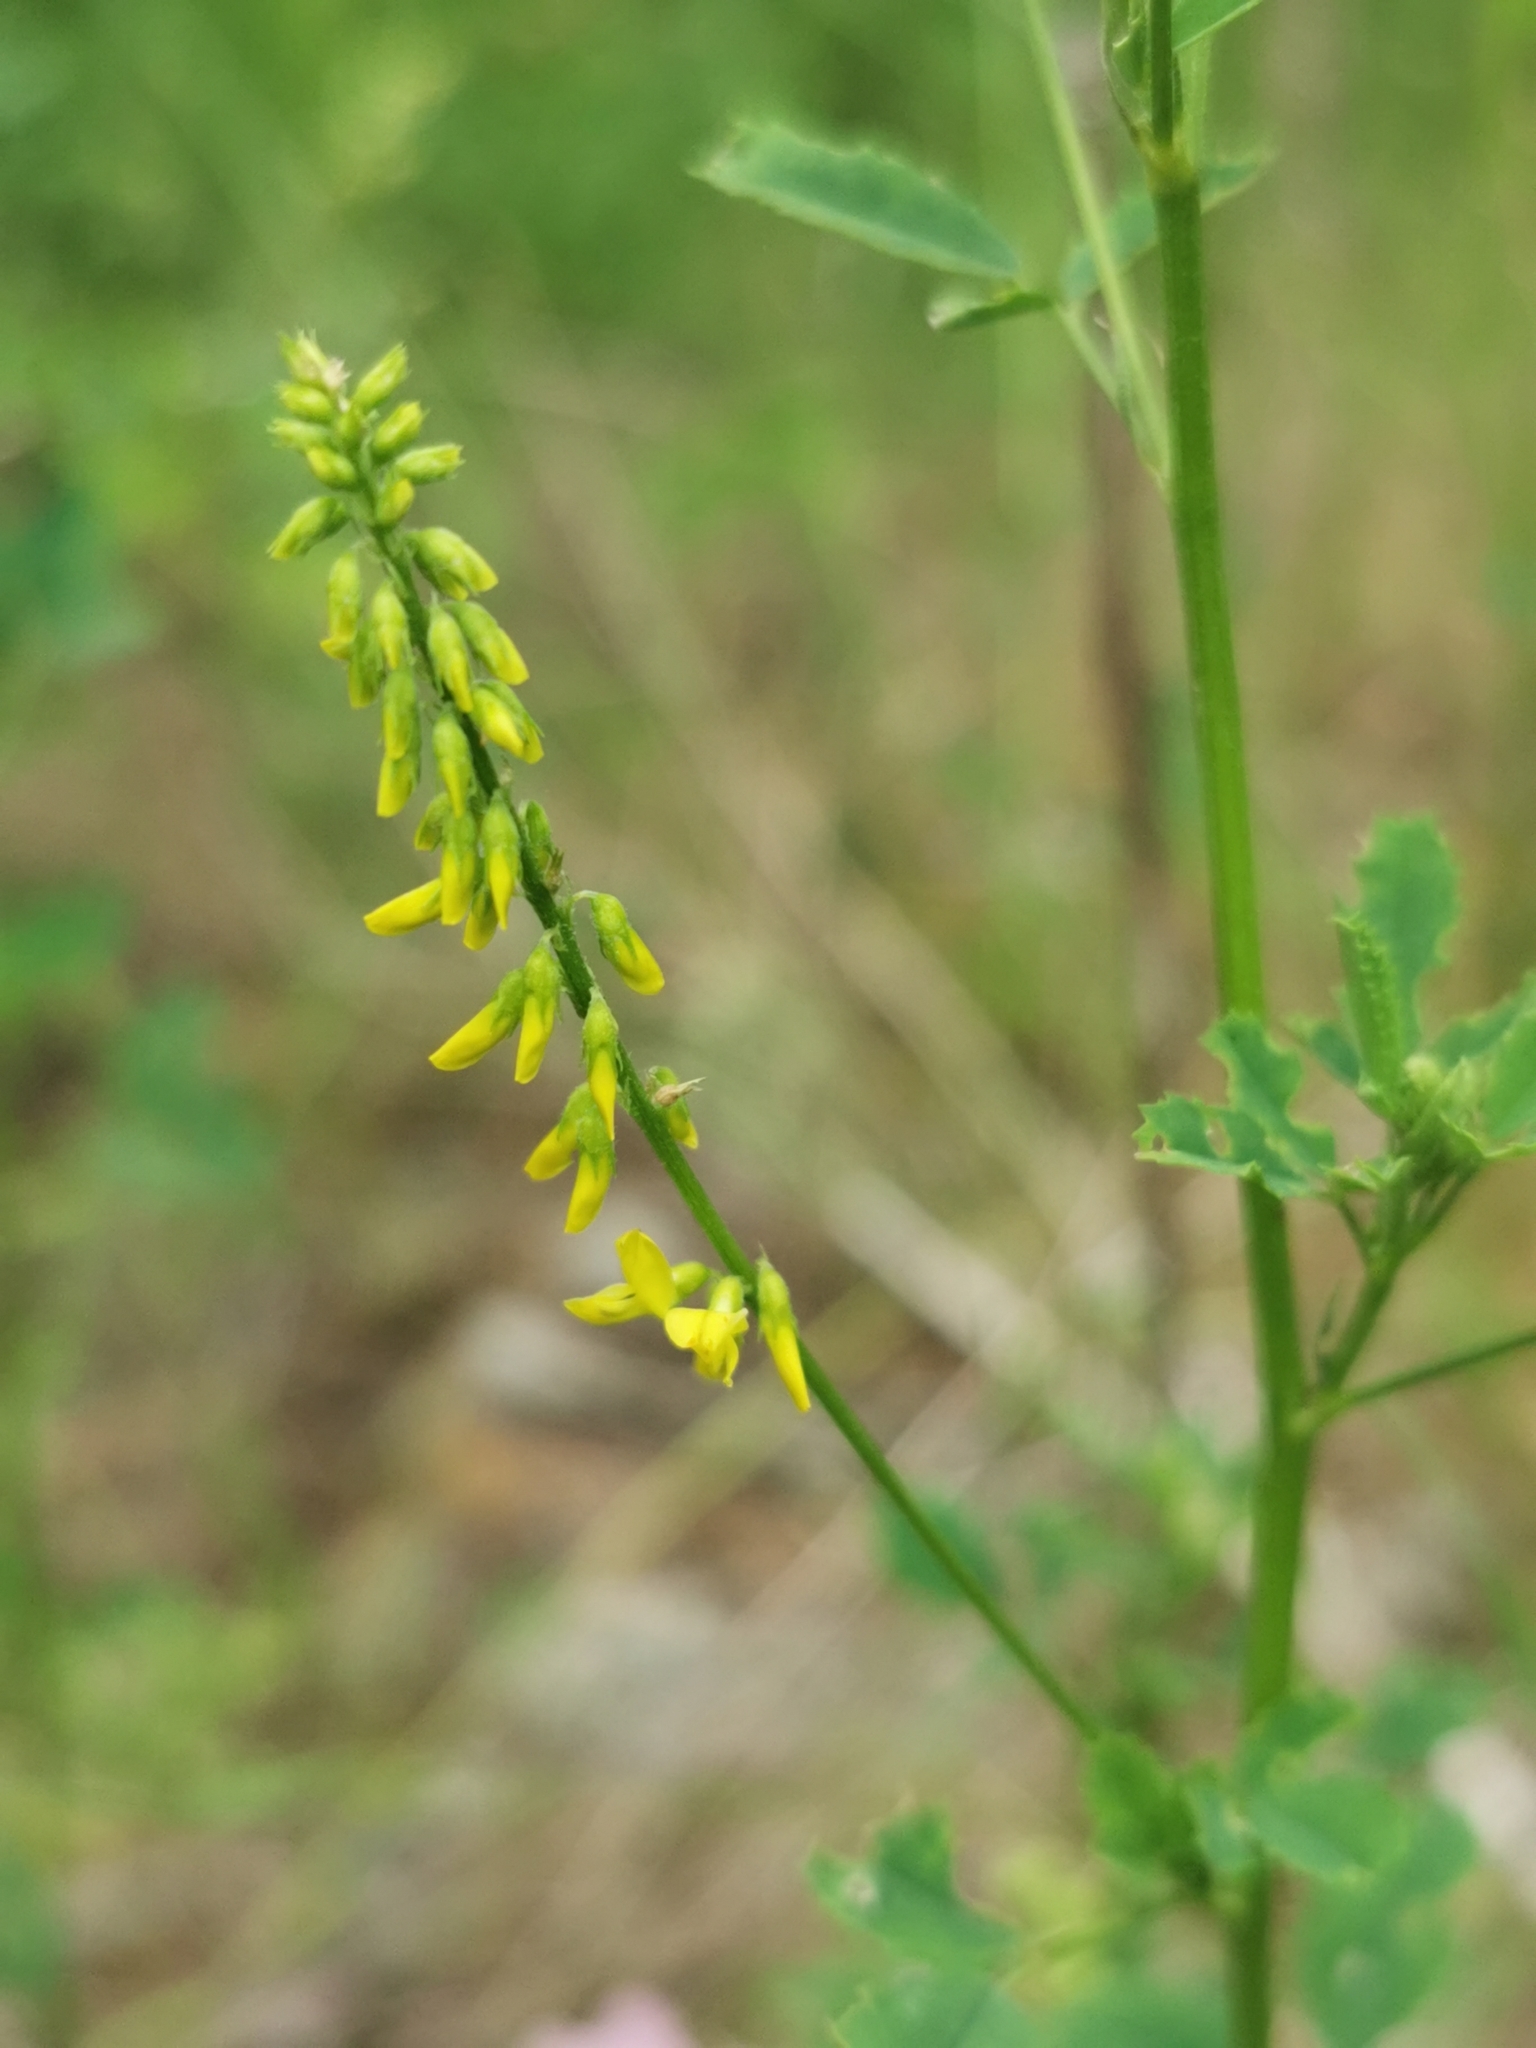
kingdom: Plantae
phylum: Tracheophyta
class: Magnoliopsida
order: Fabales
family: Fabaceae
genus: Melilotus
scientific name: Melilotus officinalis
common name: Sweetclover
